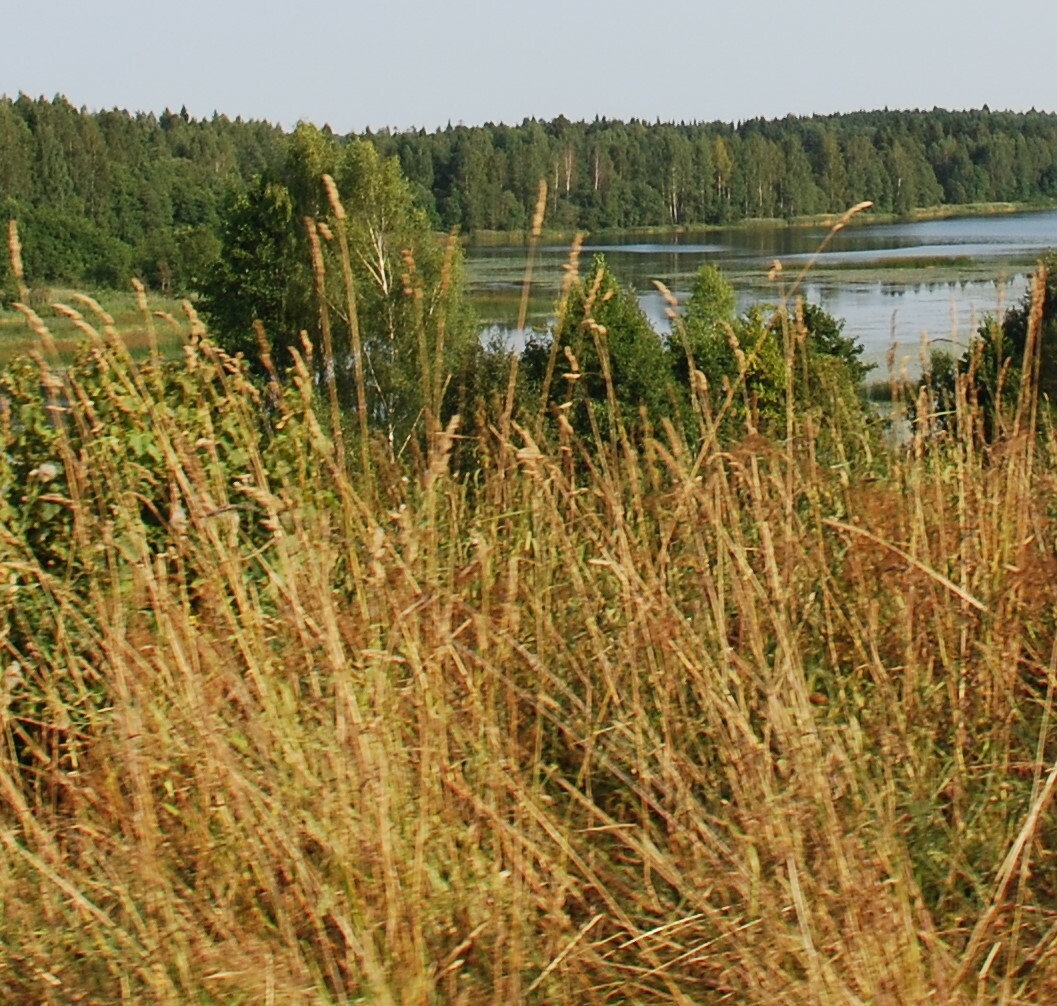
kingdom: Plantae
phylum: Tracheophyta
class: Liliopsida
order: Poales
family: Poaceae
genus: Dactylis
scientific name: Dactylis glomerata
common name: Orchardgrass
